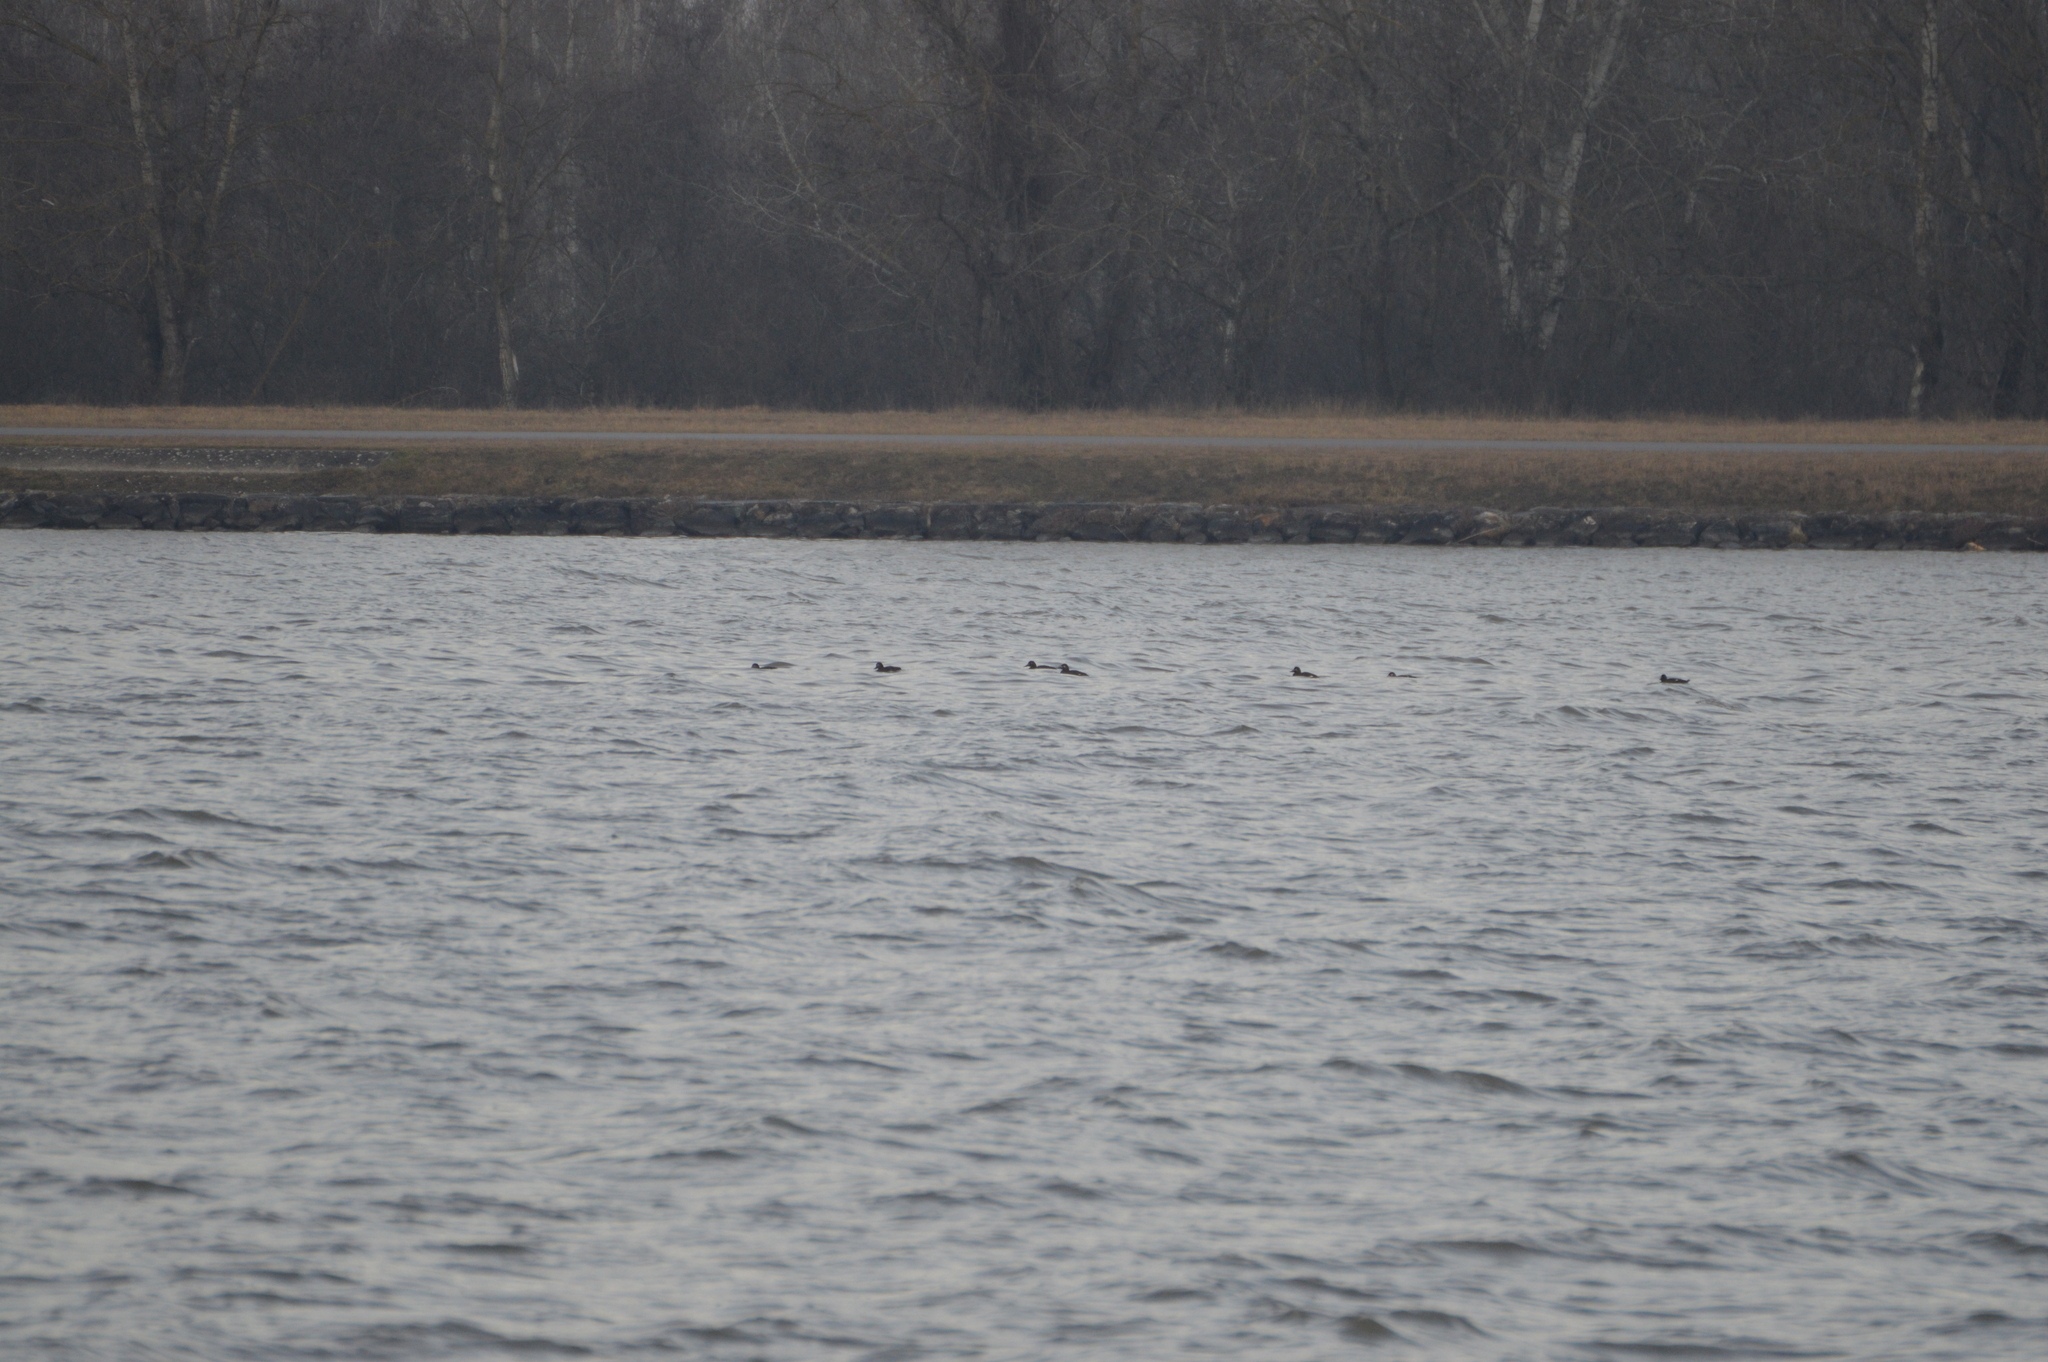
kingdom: Animalia
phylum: Chordata
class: Aves
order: Anseriformes
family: Anatidae
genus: Melanitta
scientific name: Melanitta fusca
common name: Velvet scoter
